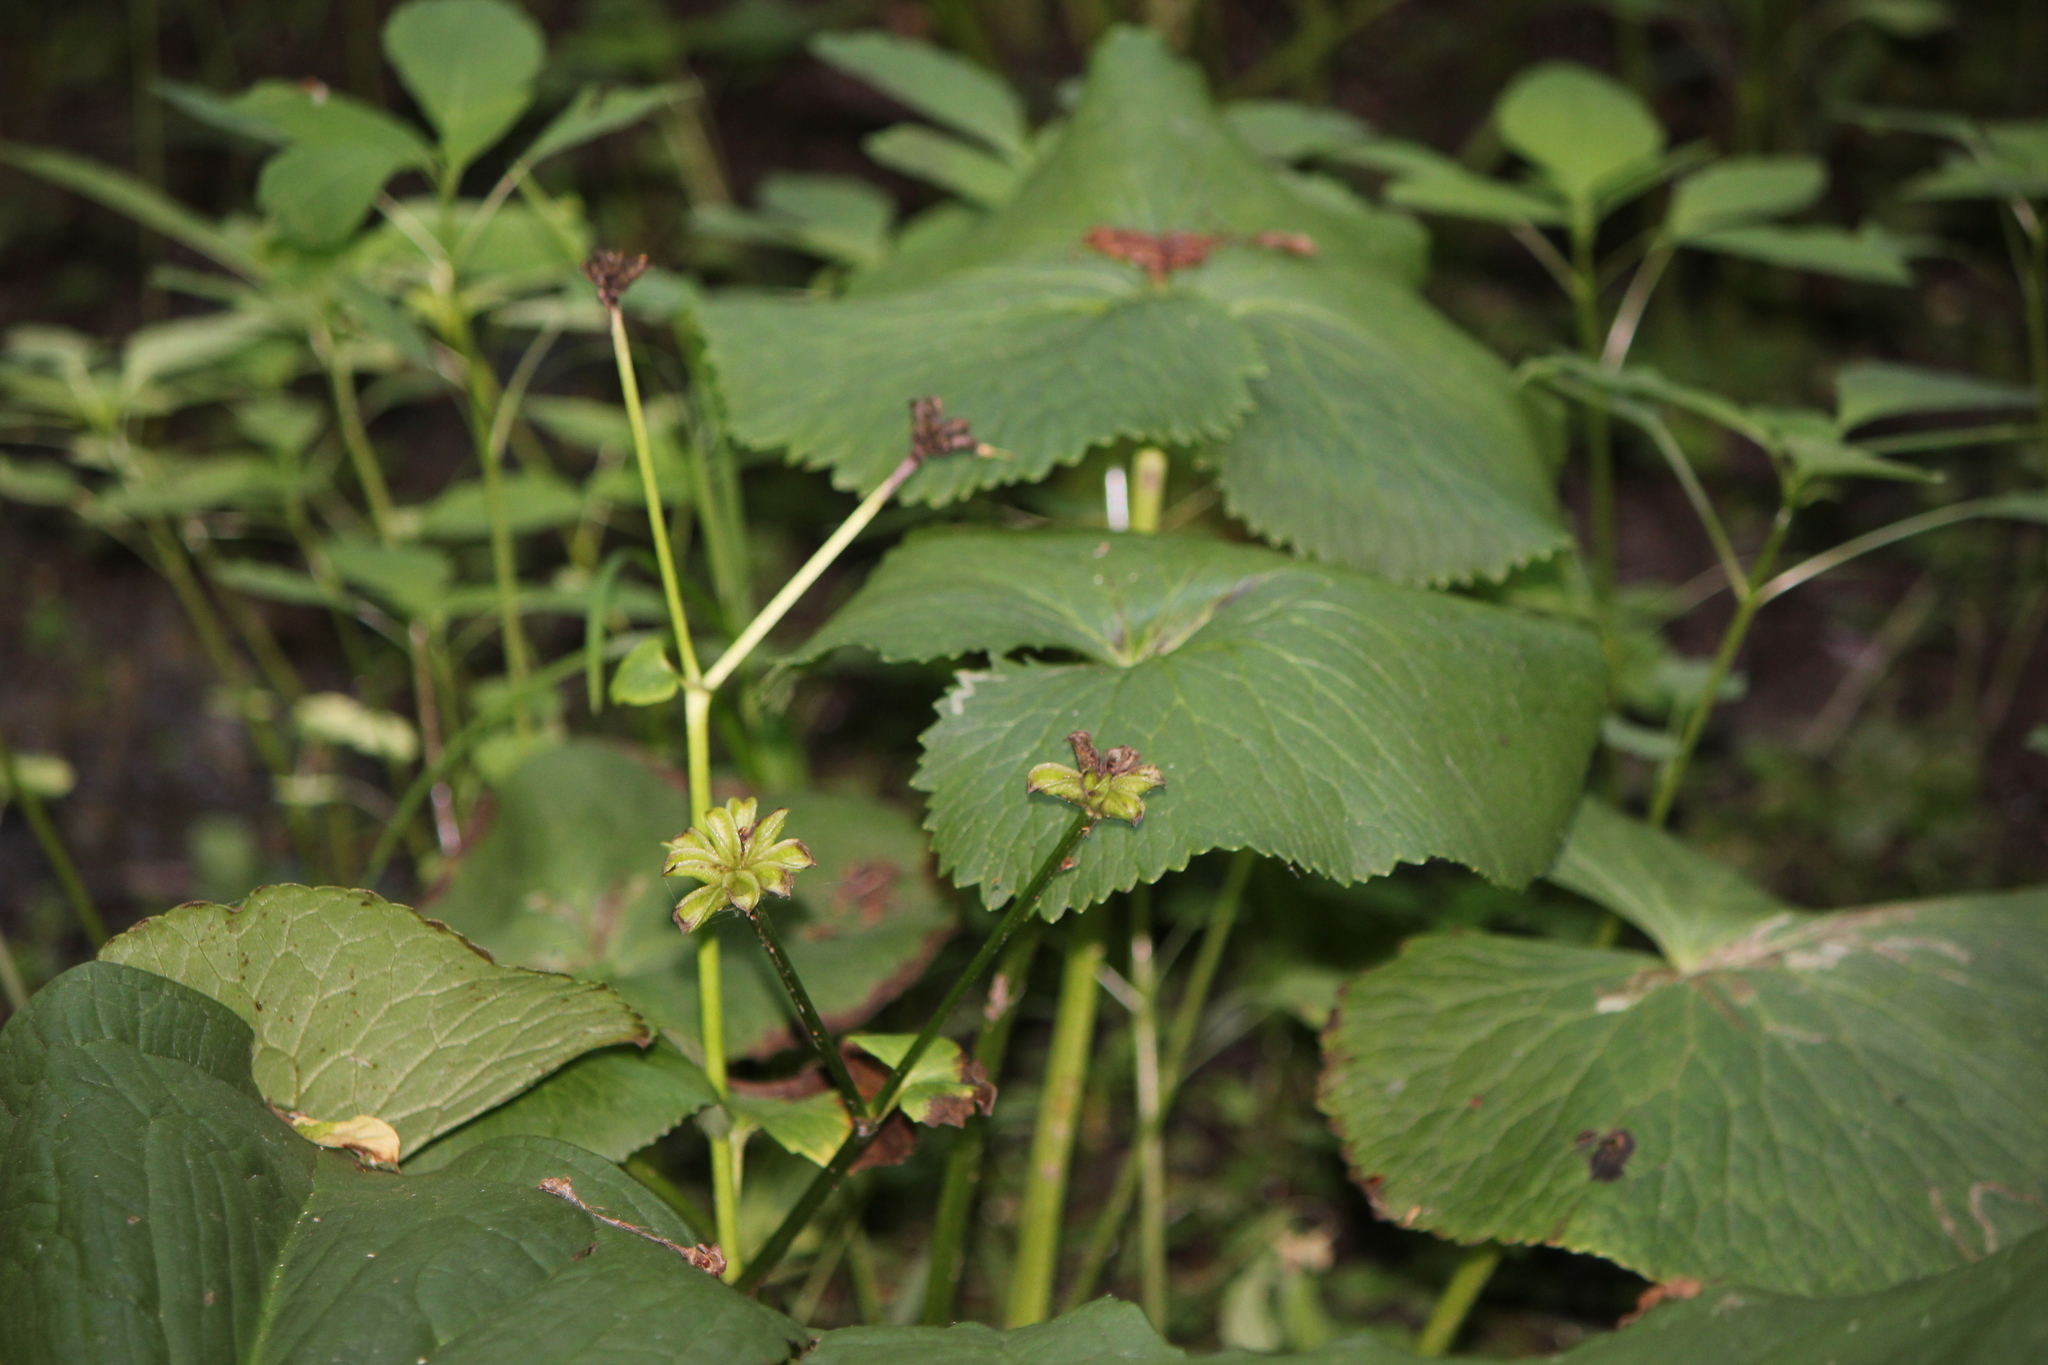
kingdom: Plantae
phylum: Tracheophyta
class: Magnoliopsida
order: Ranunculales
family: Ranunculaceae
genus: Caltha
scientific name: Caltha palustris
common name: Marsh marigold
